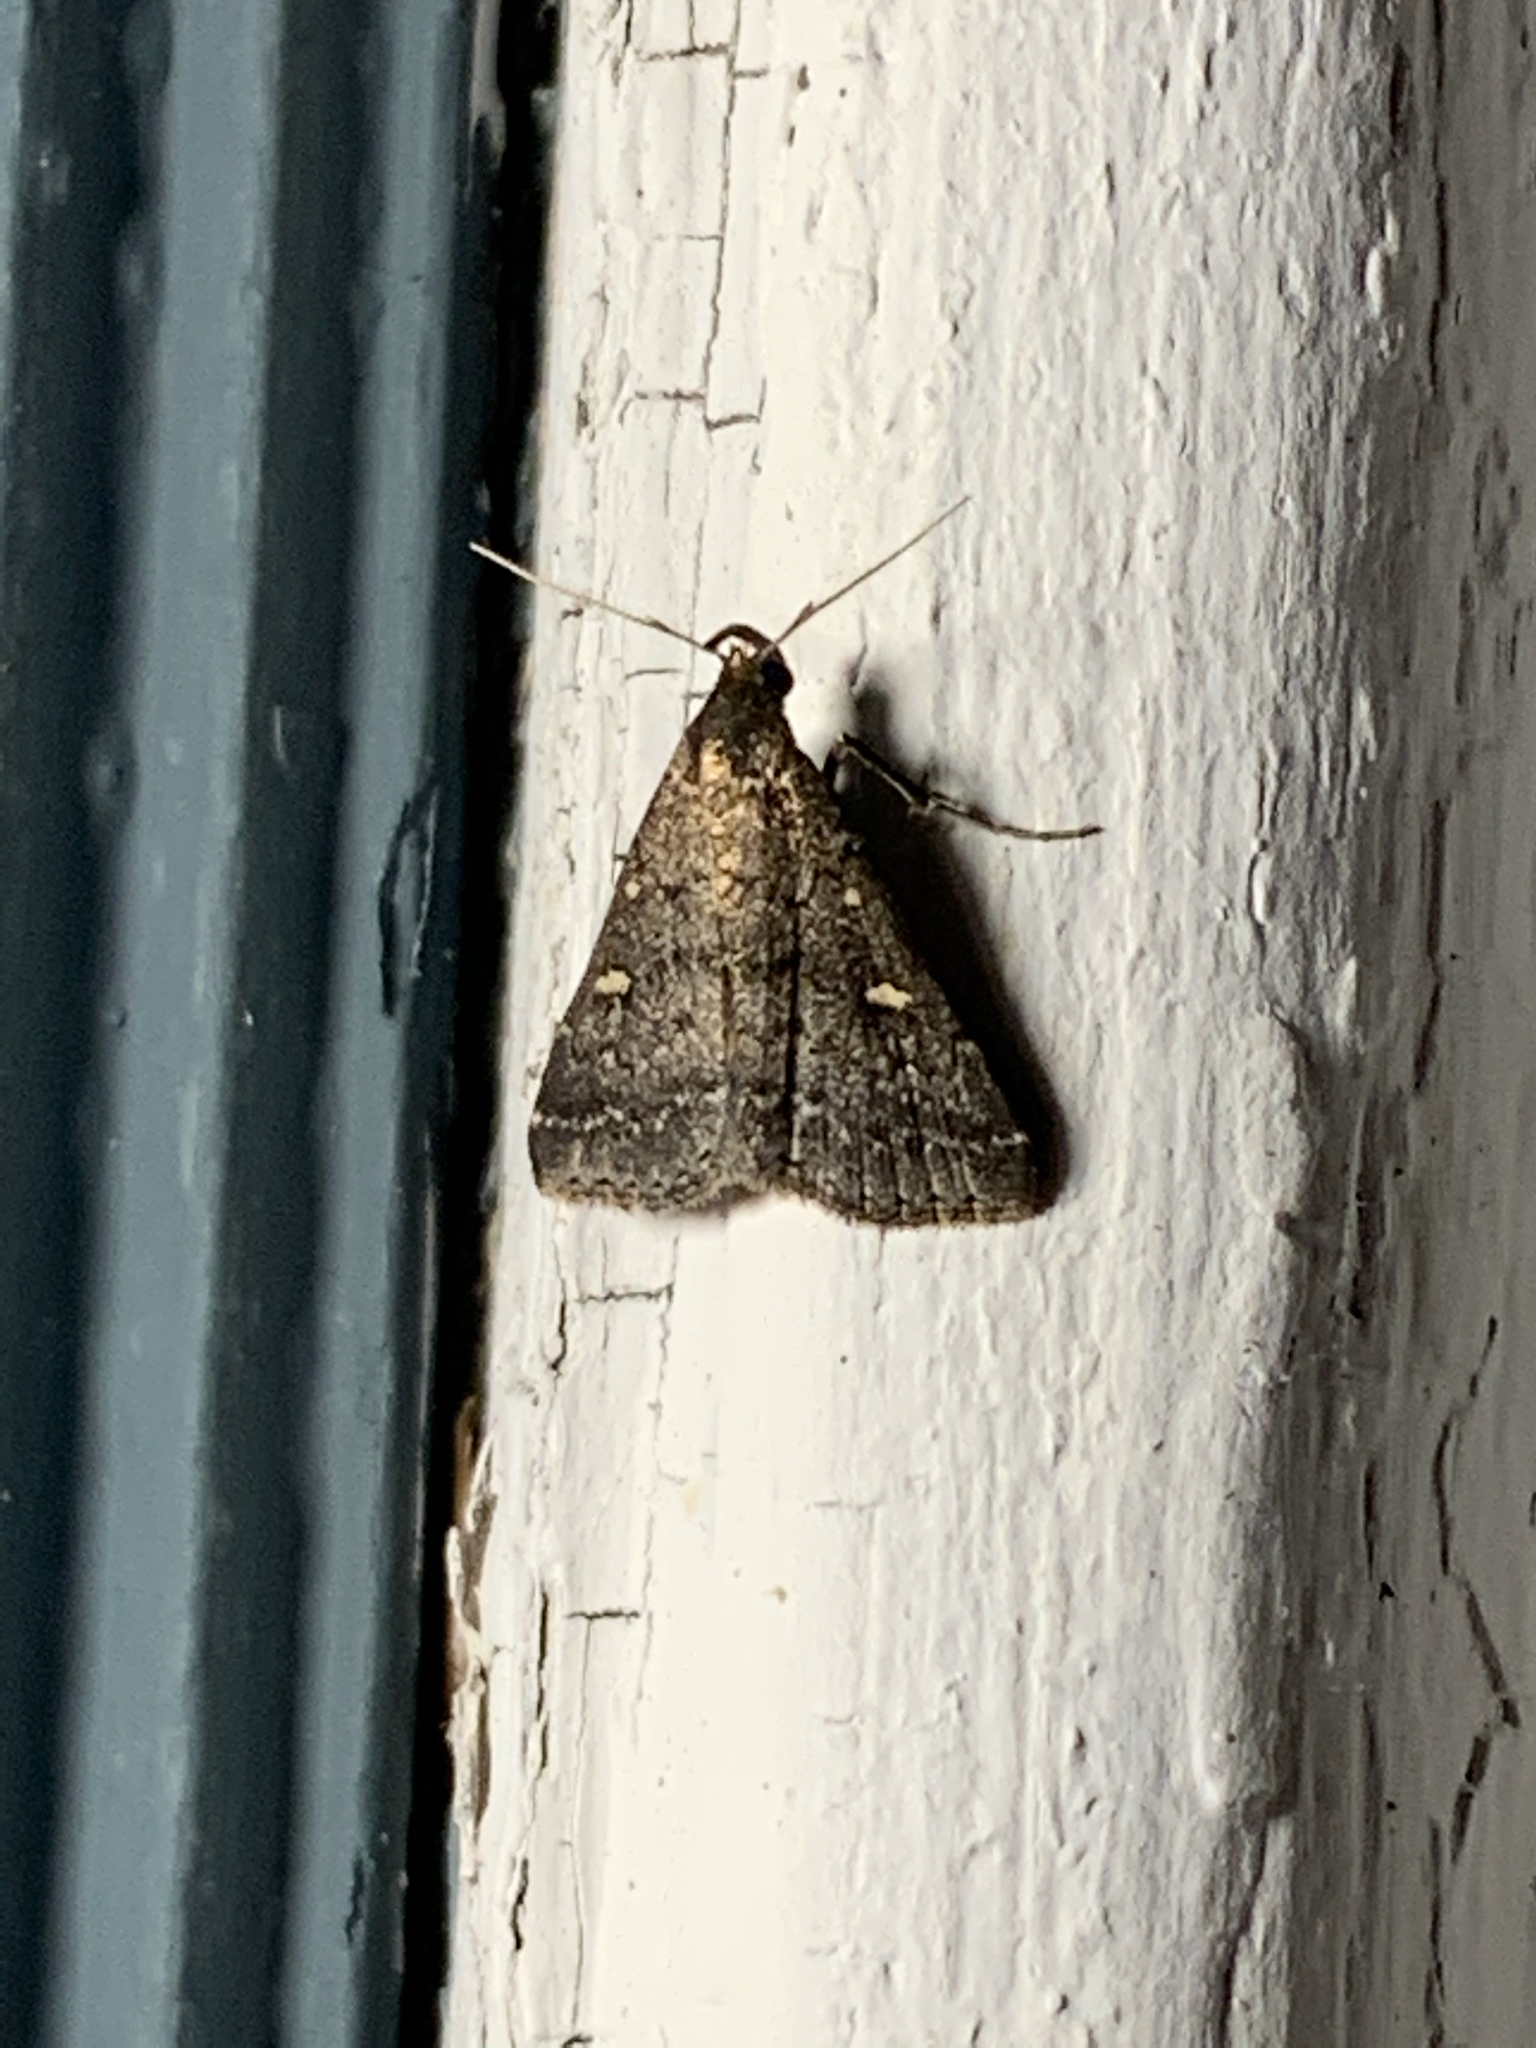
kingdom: Animalia
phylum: Arthropoda
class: Insecta
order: Lepidoptera
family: Erebidae
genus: Tetanolita
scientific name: Tetanolita mynesalis
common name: Smoky tetanolita moth
